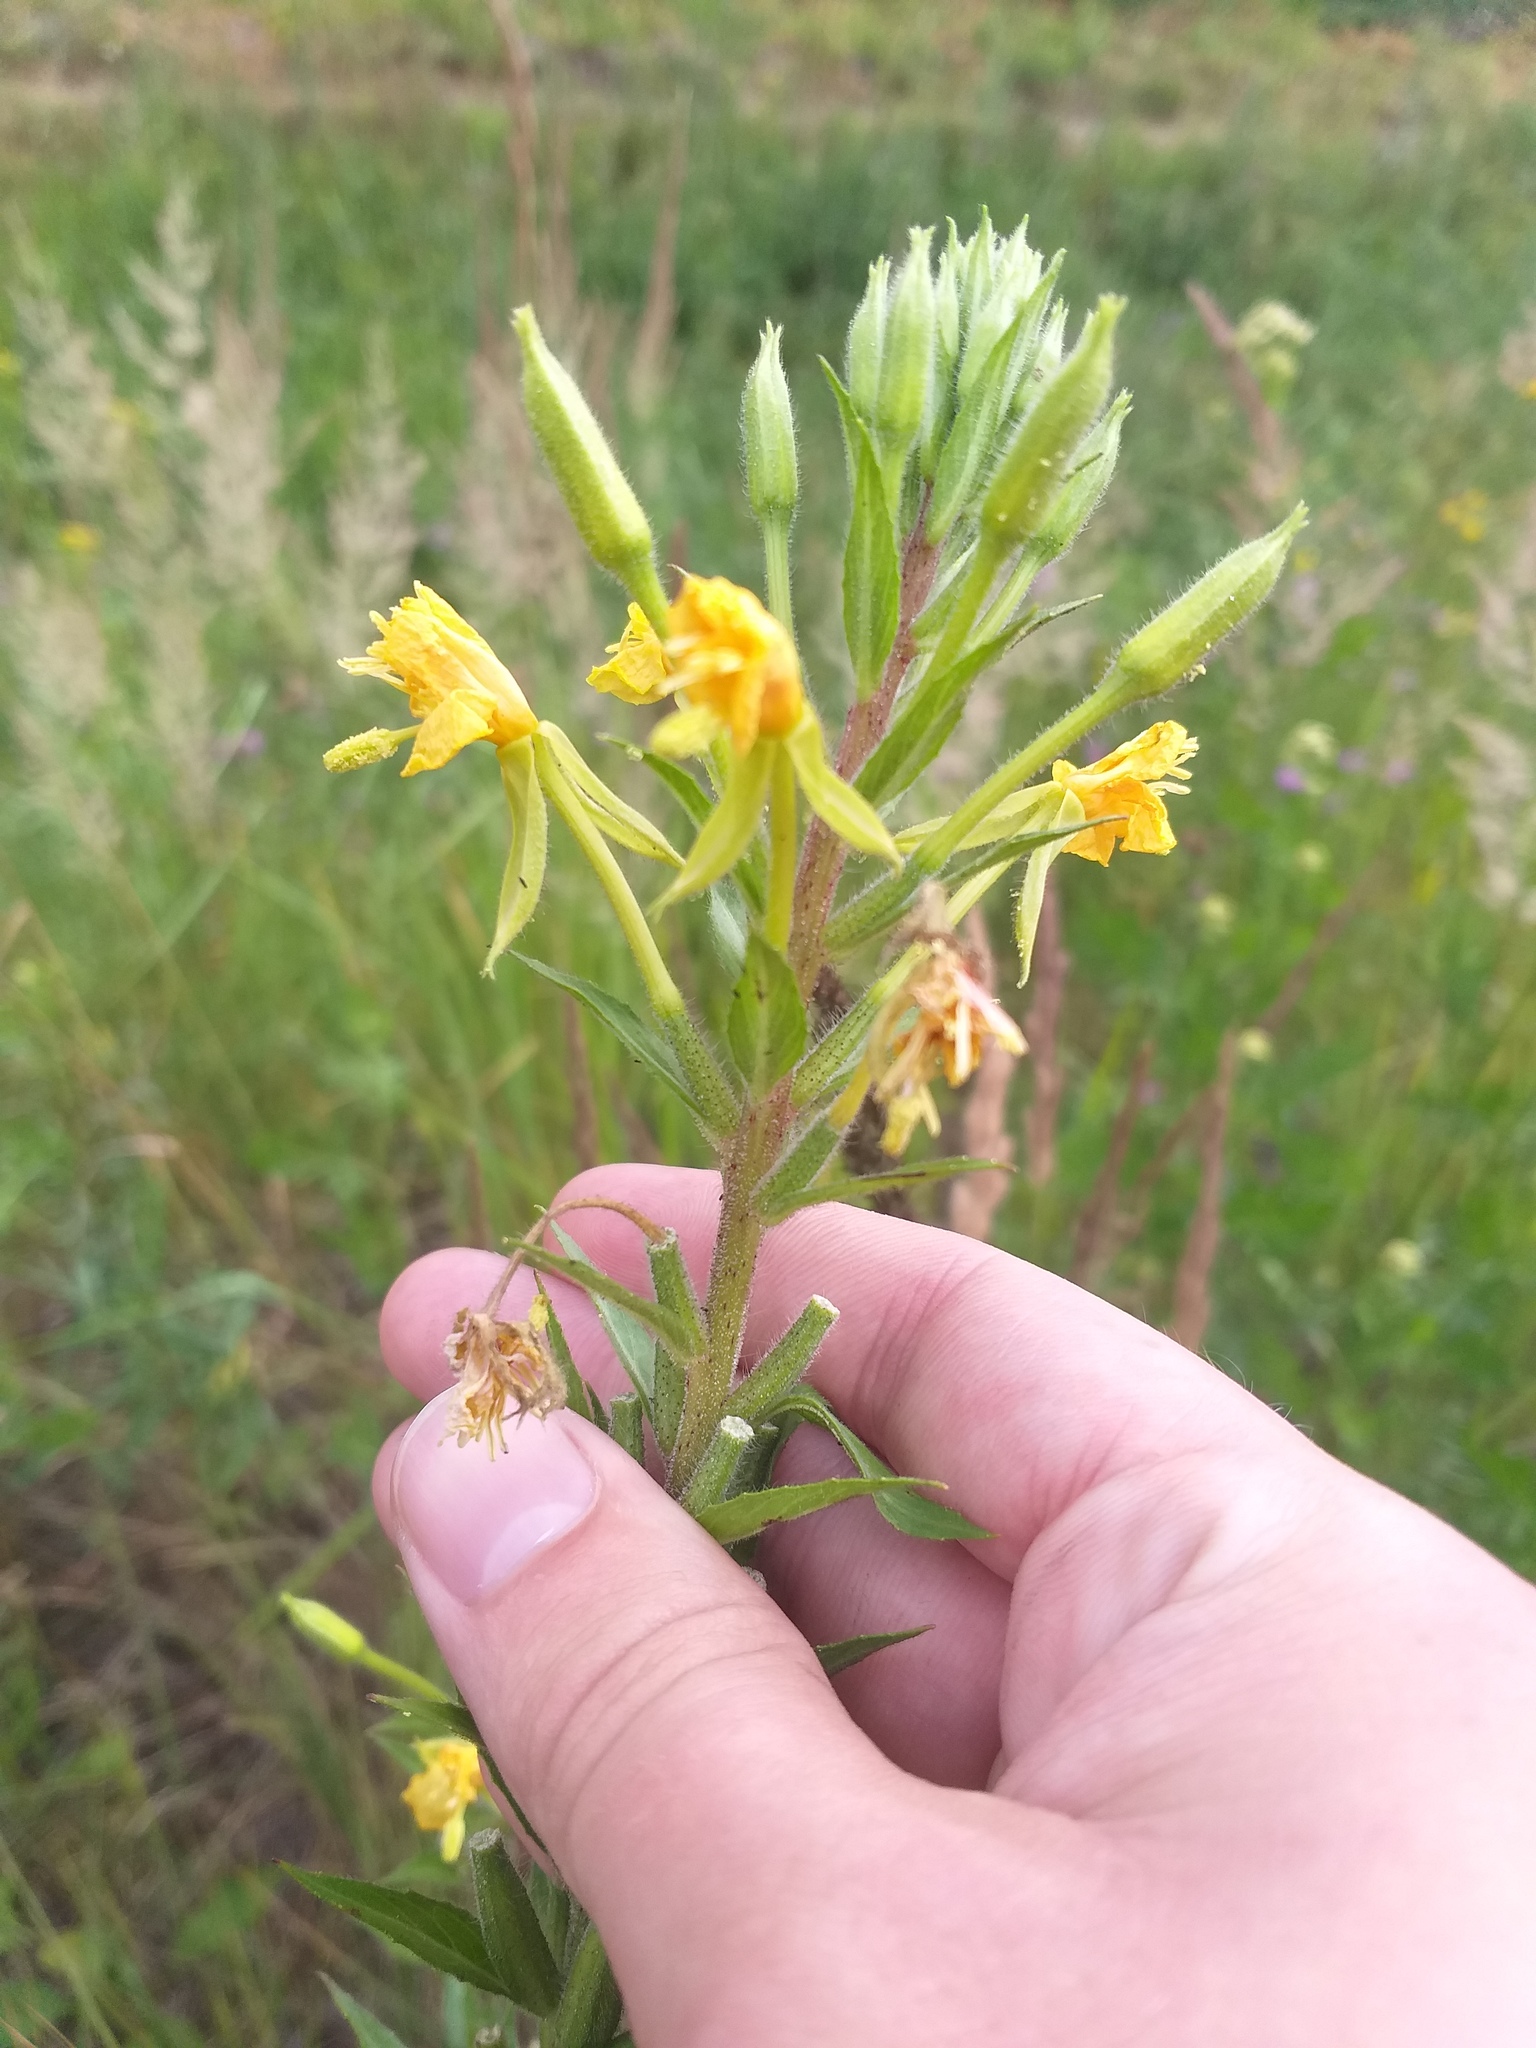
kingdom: Plantae
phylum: Tracheophyta
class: Magnoliopsida
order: Myrtales
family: Onagraceae
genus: Oenothera
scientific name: Oenothera rubricaulis
